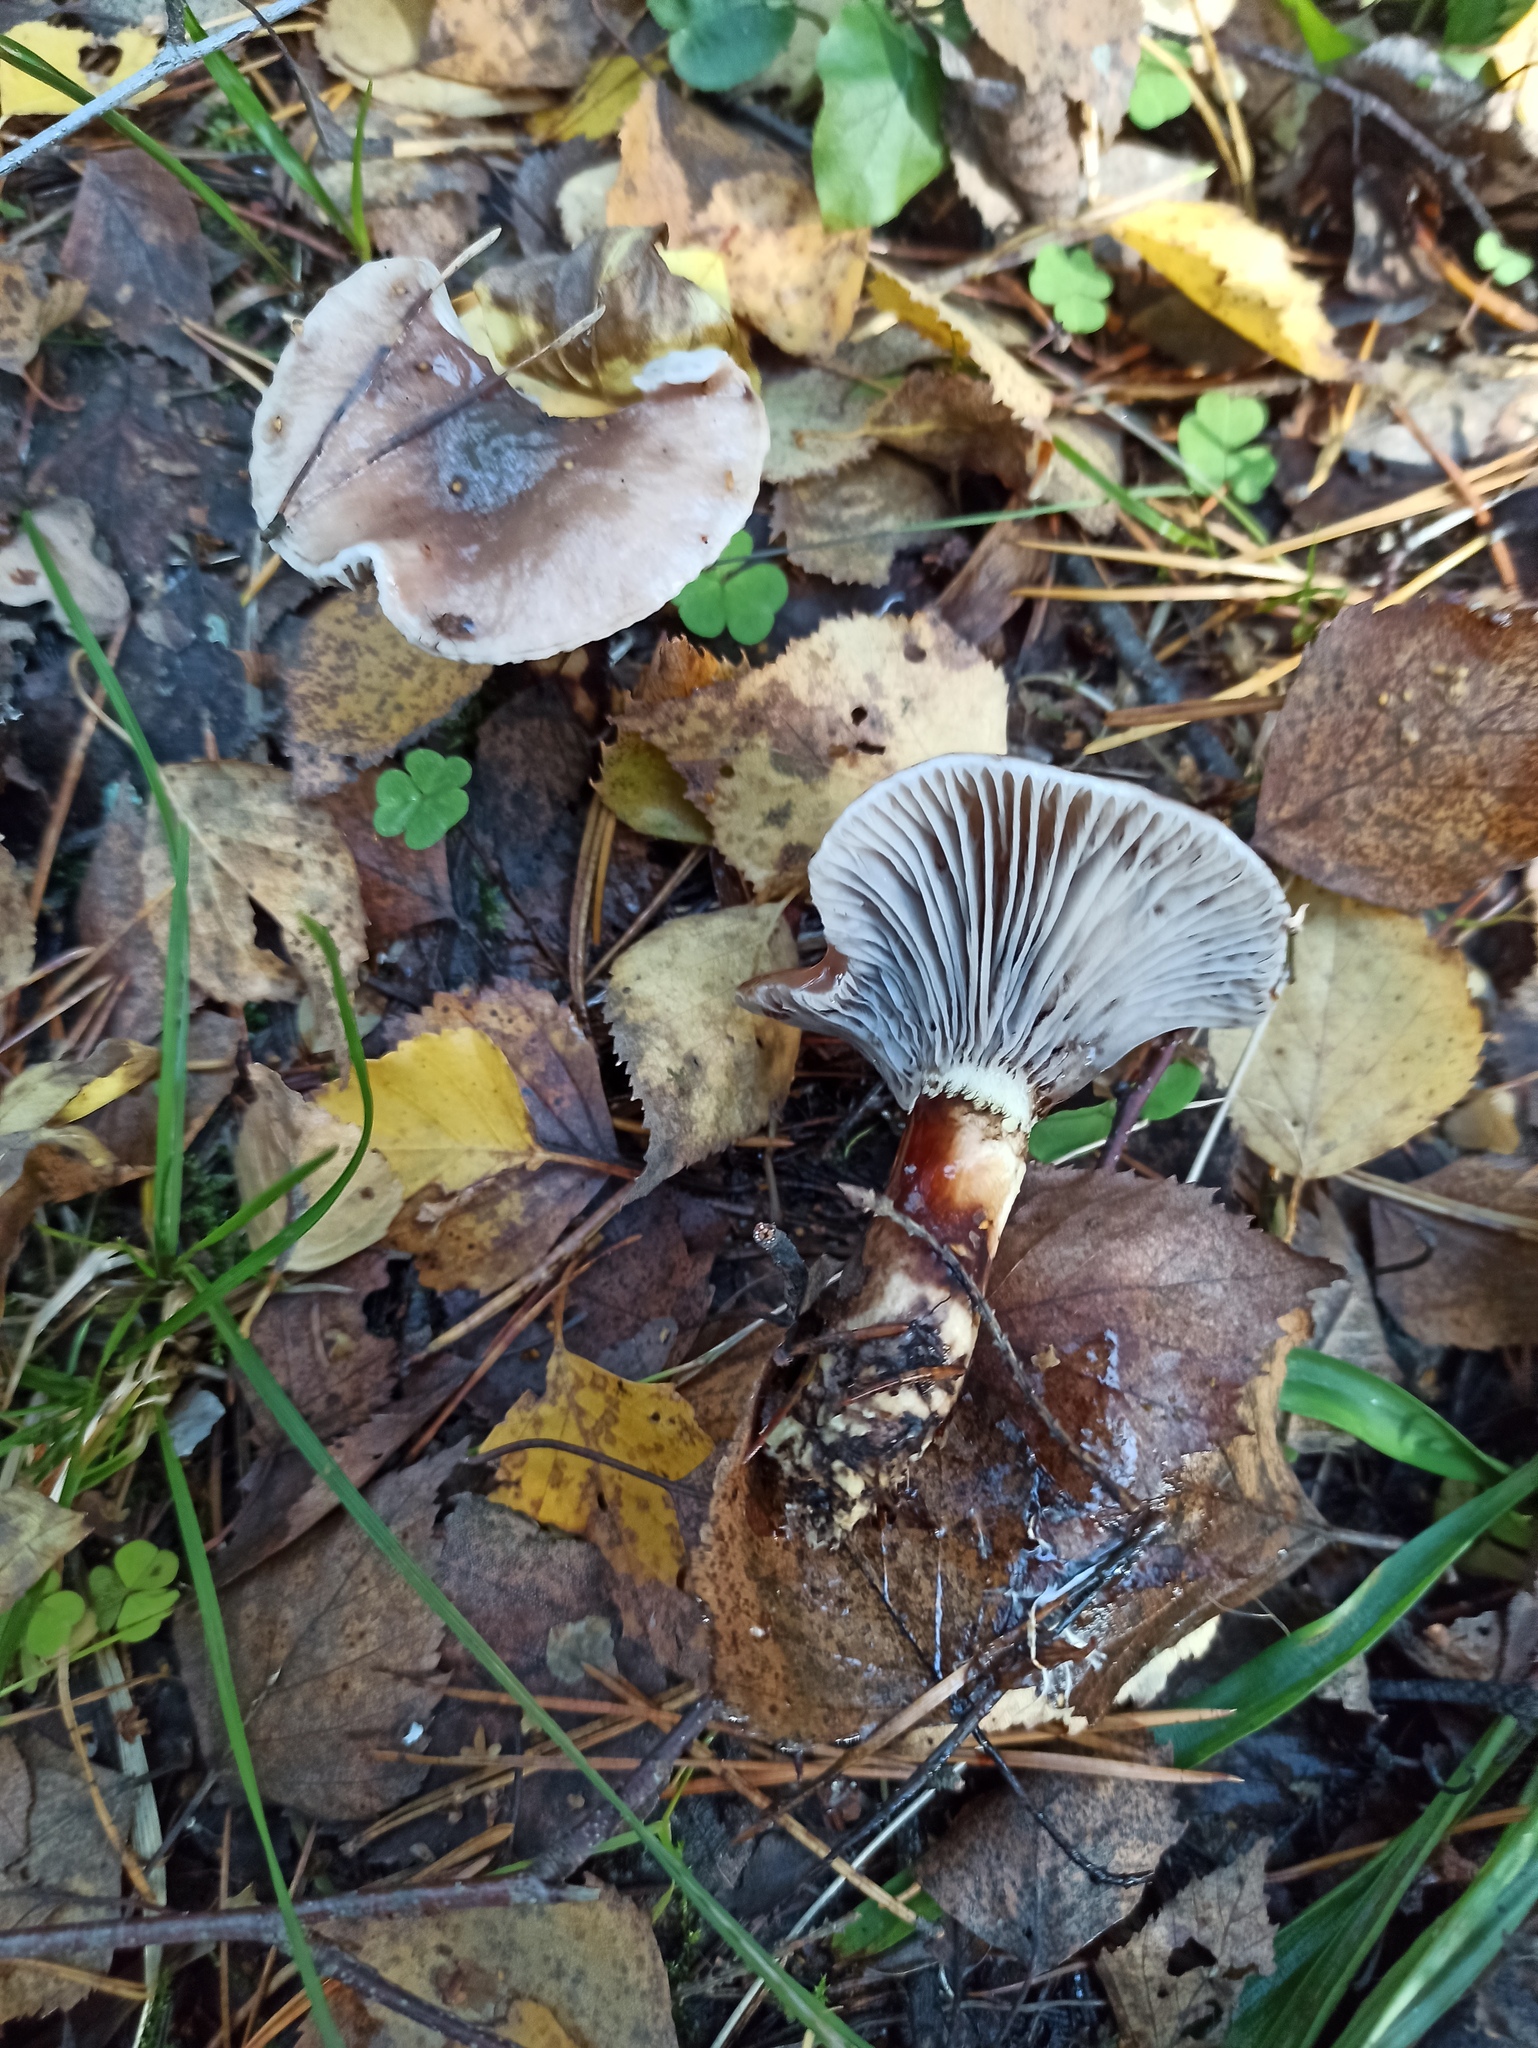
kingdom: Fungi
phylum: Basidiomycota
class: Agaricomycetes
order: Boletales
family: Gomphidiaceae
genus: Gomphidius
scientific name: Gomphidius glutinosus
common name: Slimy spike
